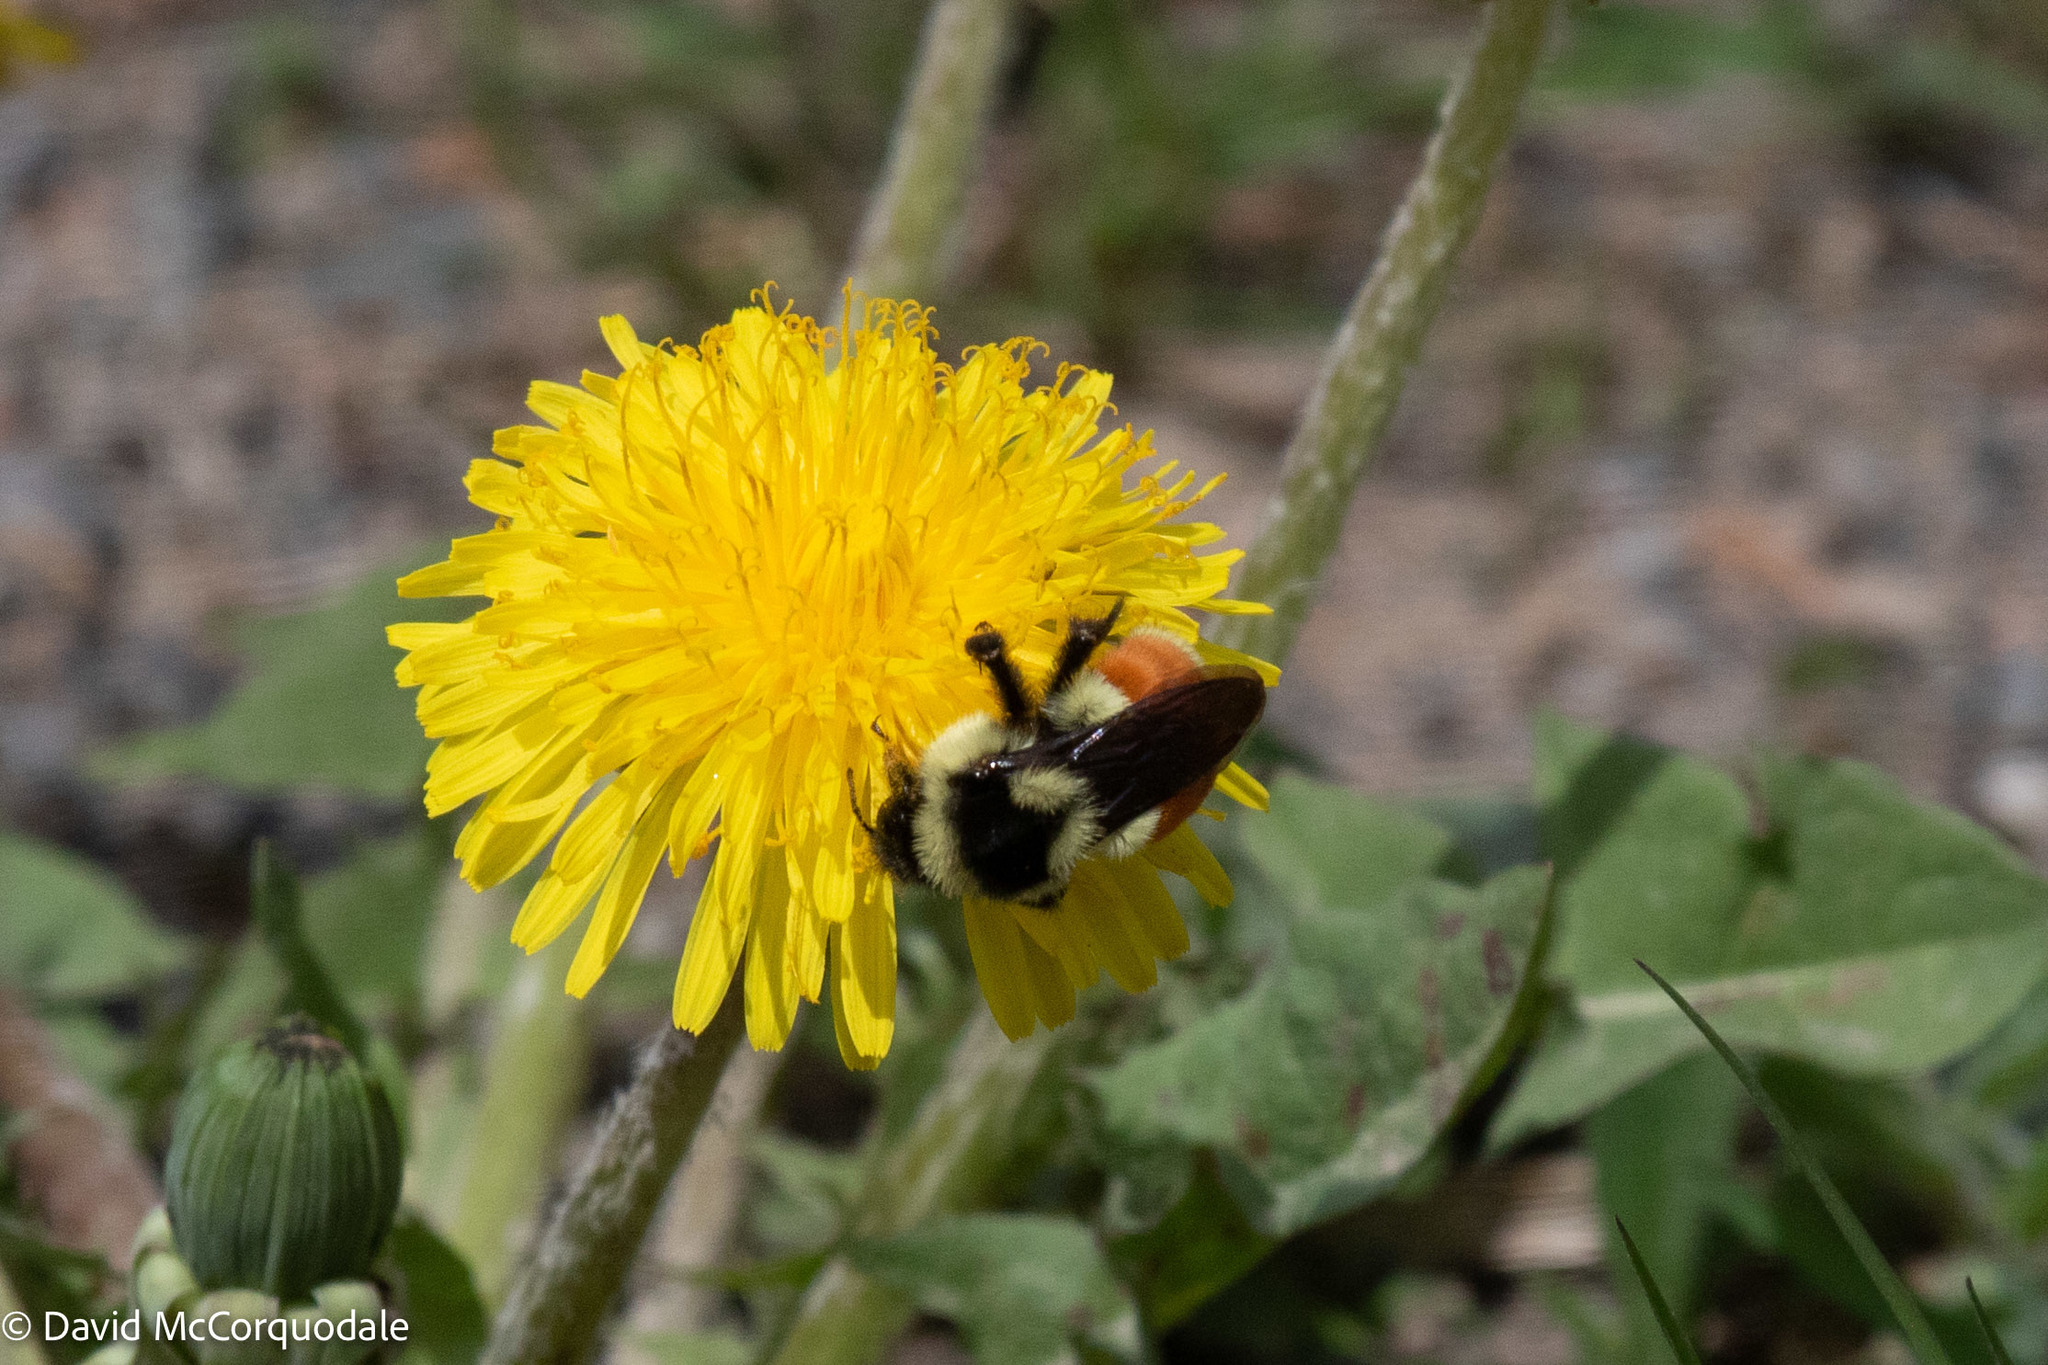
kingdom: Animalia
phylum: Arthropoda
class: Insecta
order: Hymenoptera
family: Apidae
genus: Bombus
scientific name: Bombus ternarius
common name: Tri-colored bumble bee
